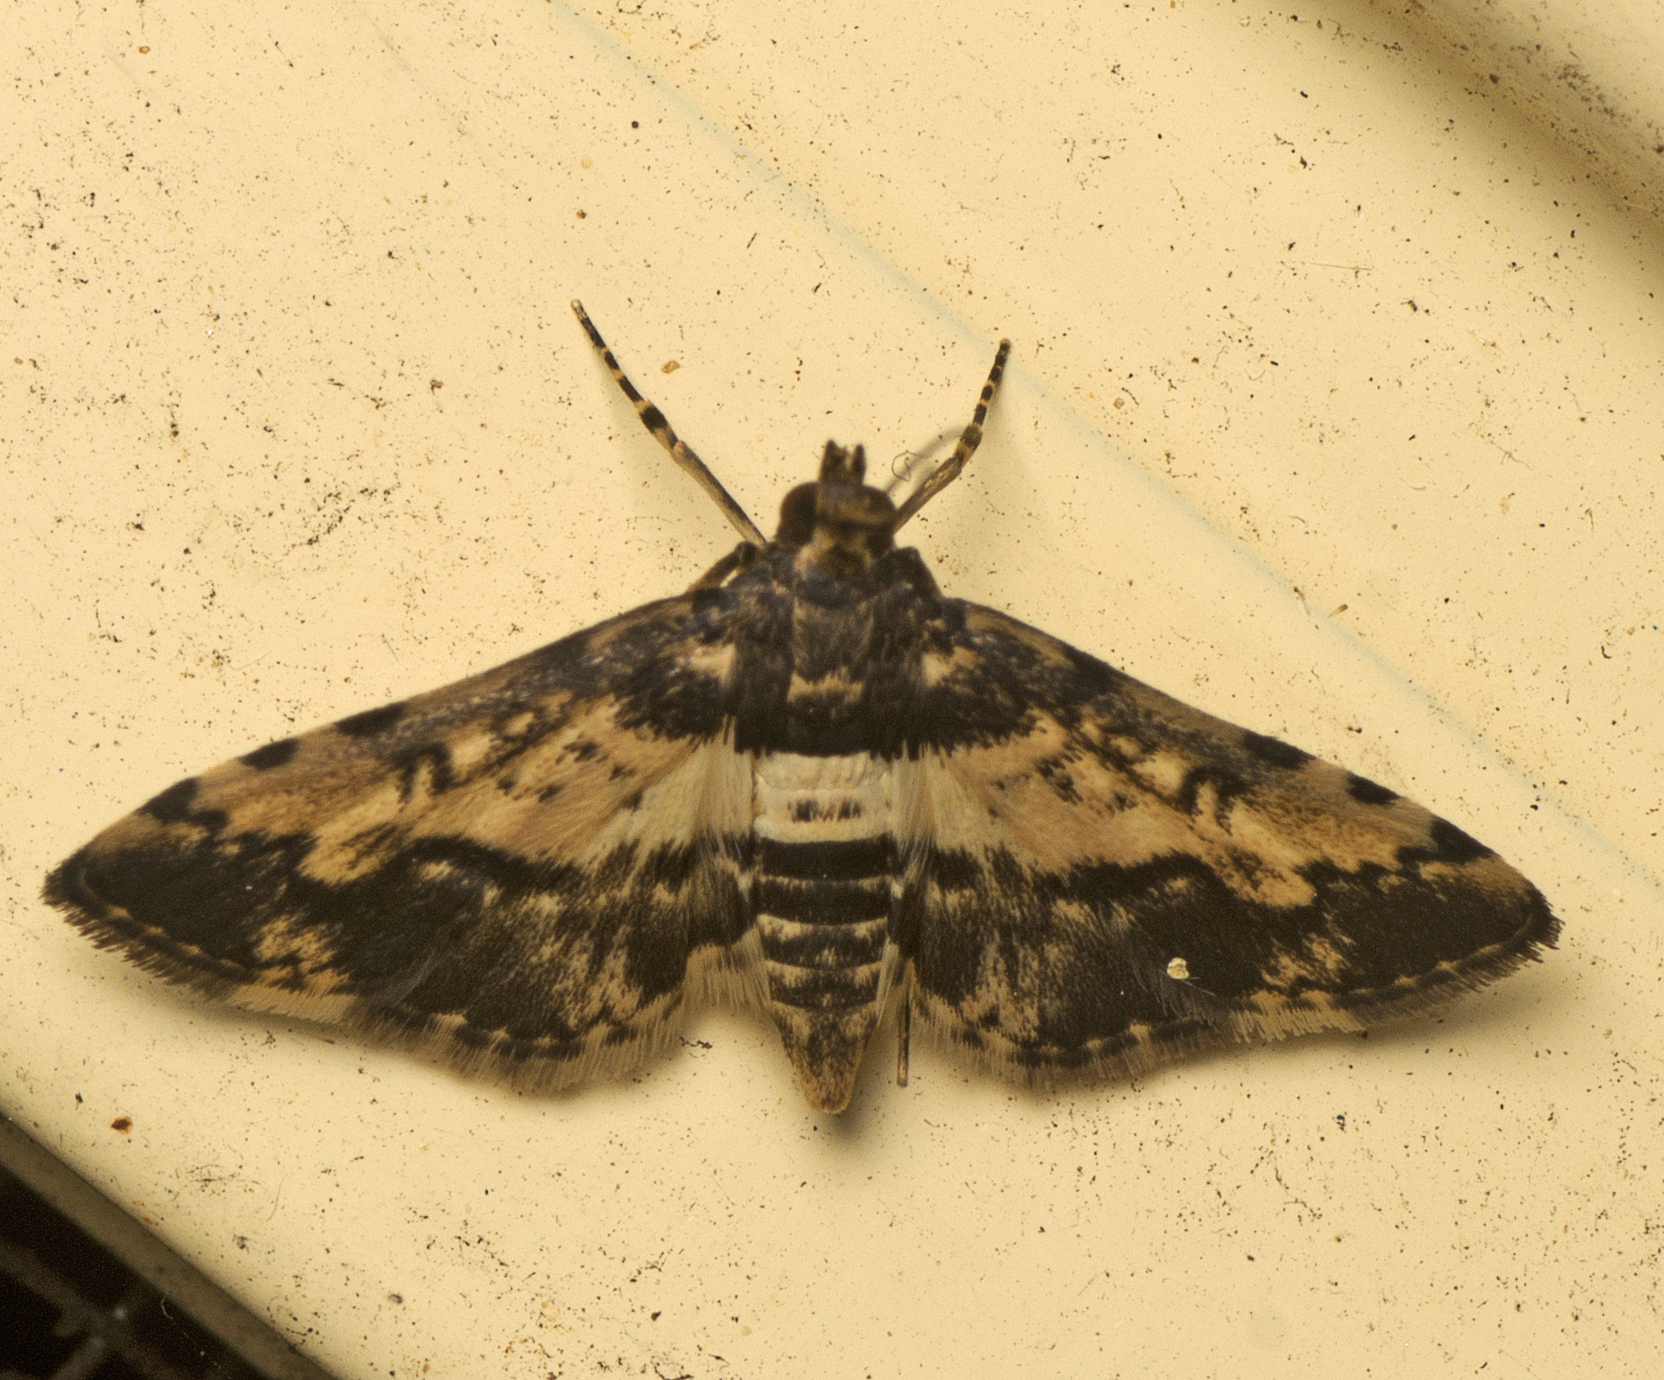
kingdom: Animalia
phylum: Arthropoda
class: Insecta
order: Lepidoptera
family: Crambidae
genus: Nacoleia
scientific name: Nacoleia amphicedalis
